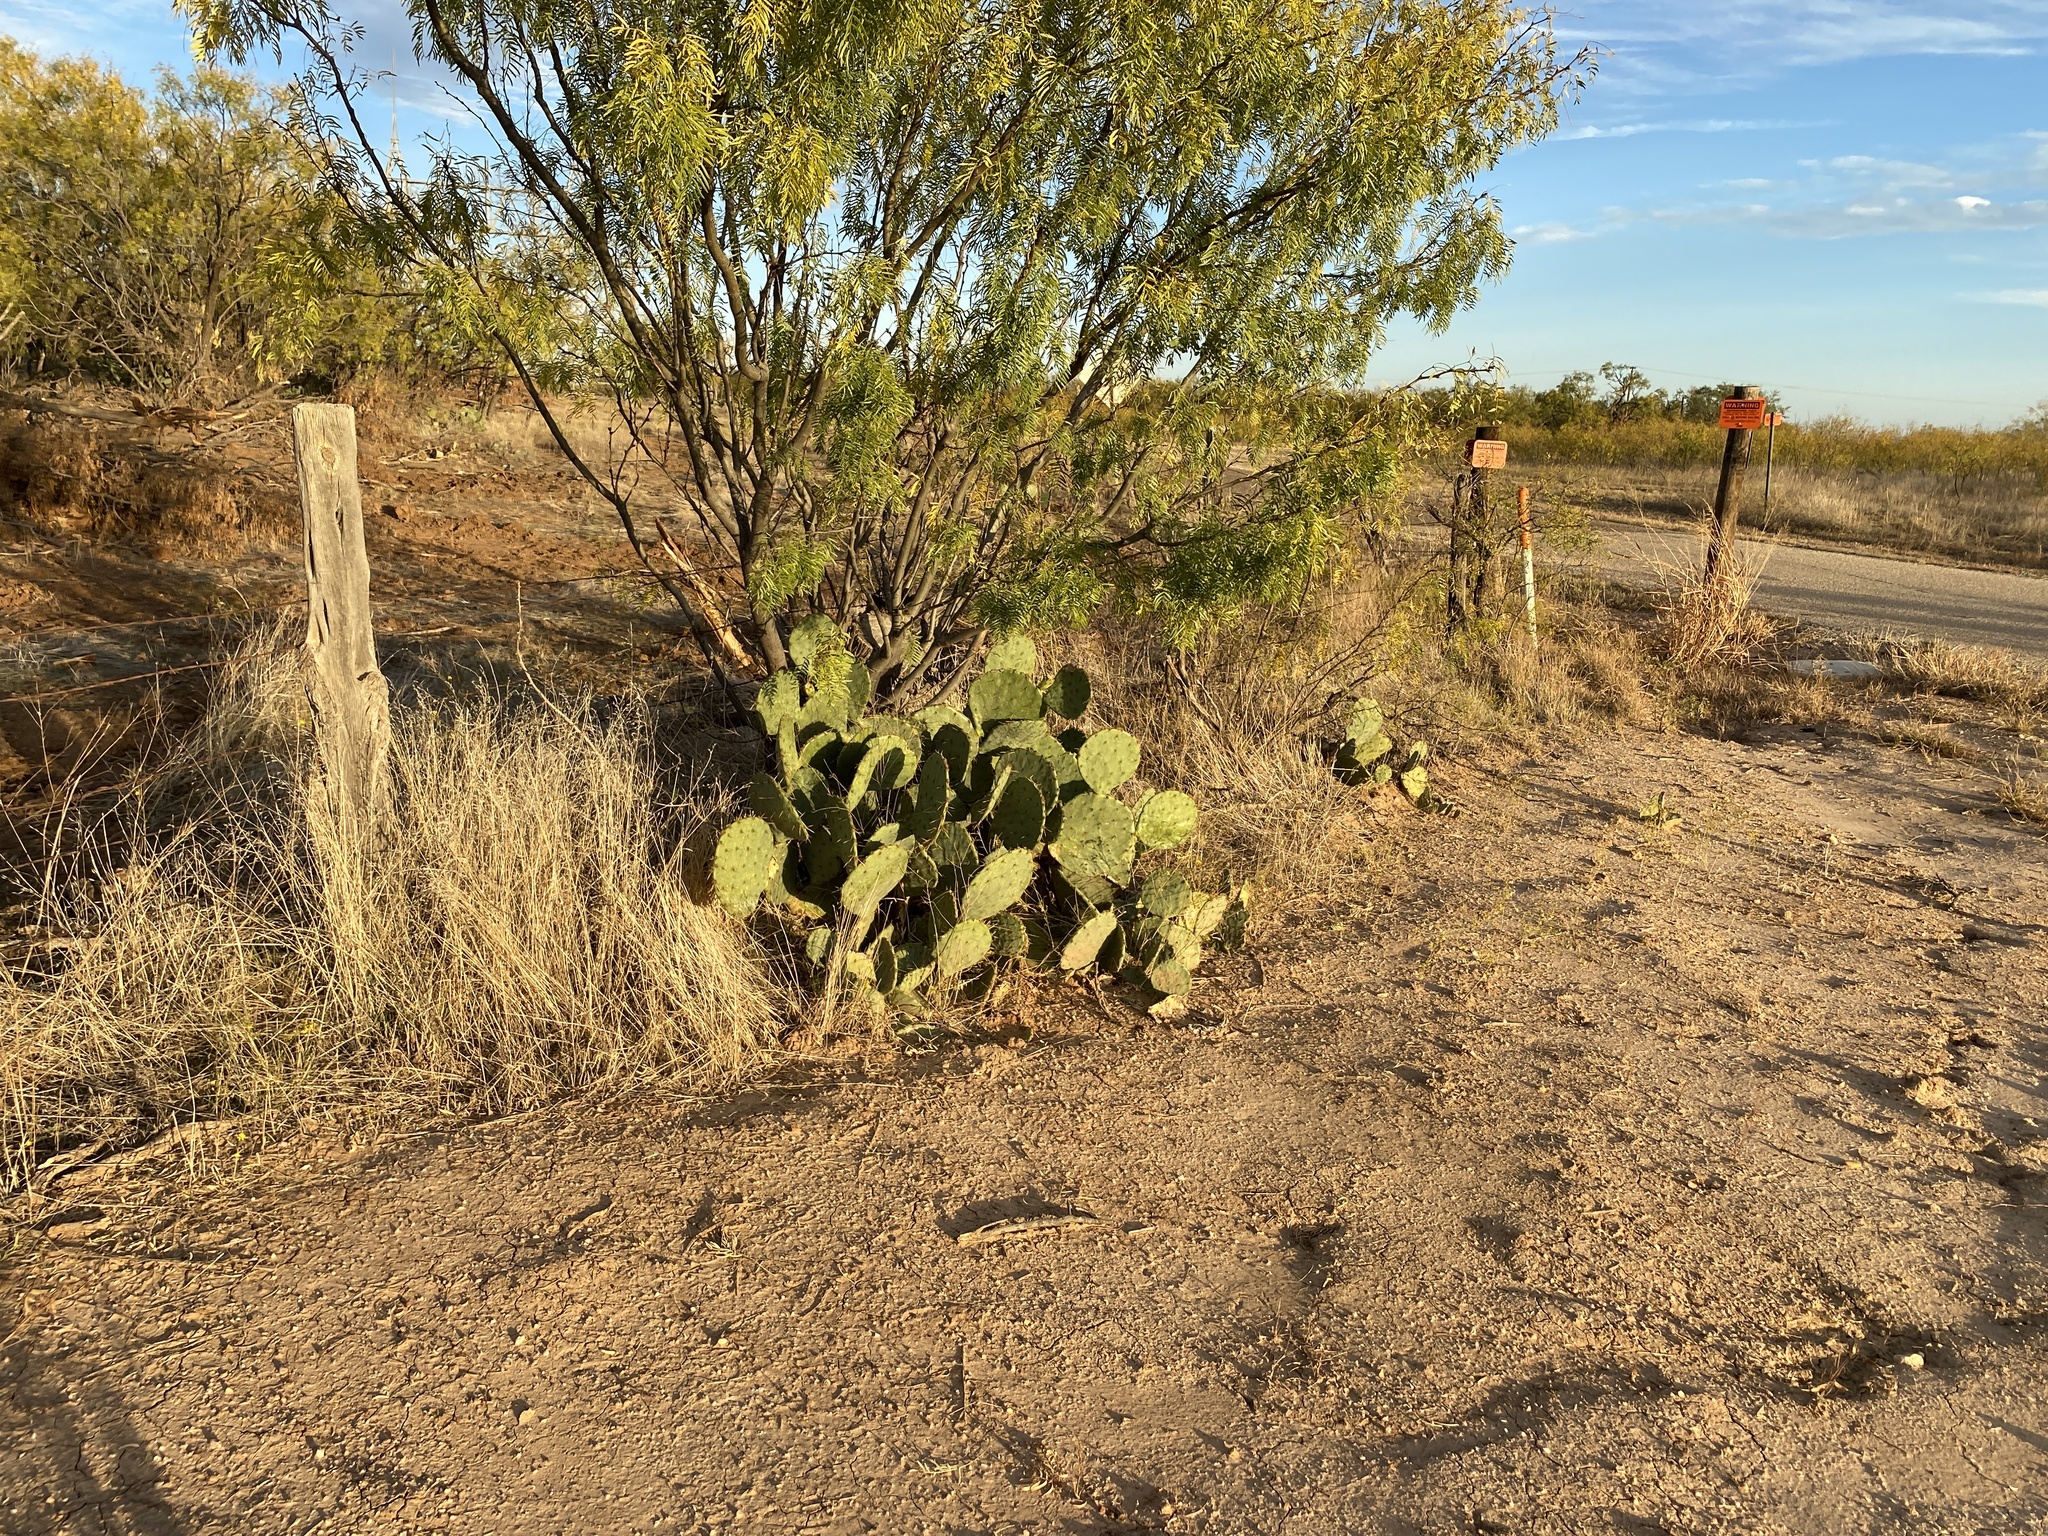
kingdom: Plantae
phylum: Tracheophyta
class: Magnoliopsida
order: Caryophyllales
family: Cactaceae
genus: Opuntia
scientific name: Opuntia orbiculata
